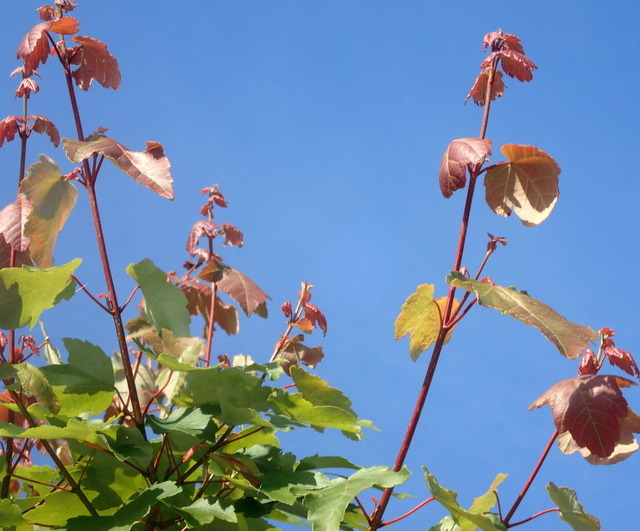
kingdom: Plantae
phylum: Tracheophyta
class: Magnoliopsida
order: Sapindales
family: Sapindaceae
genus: Acer
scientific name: Acer rubrum
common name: Red maple
